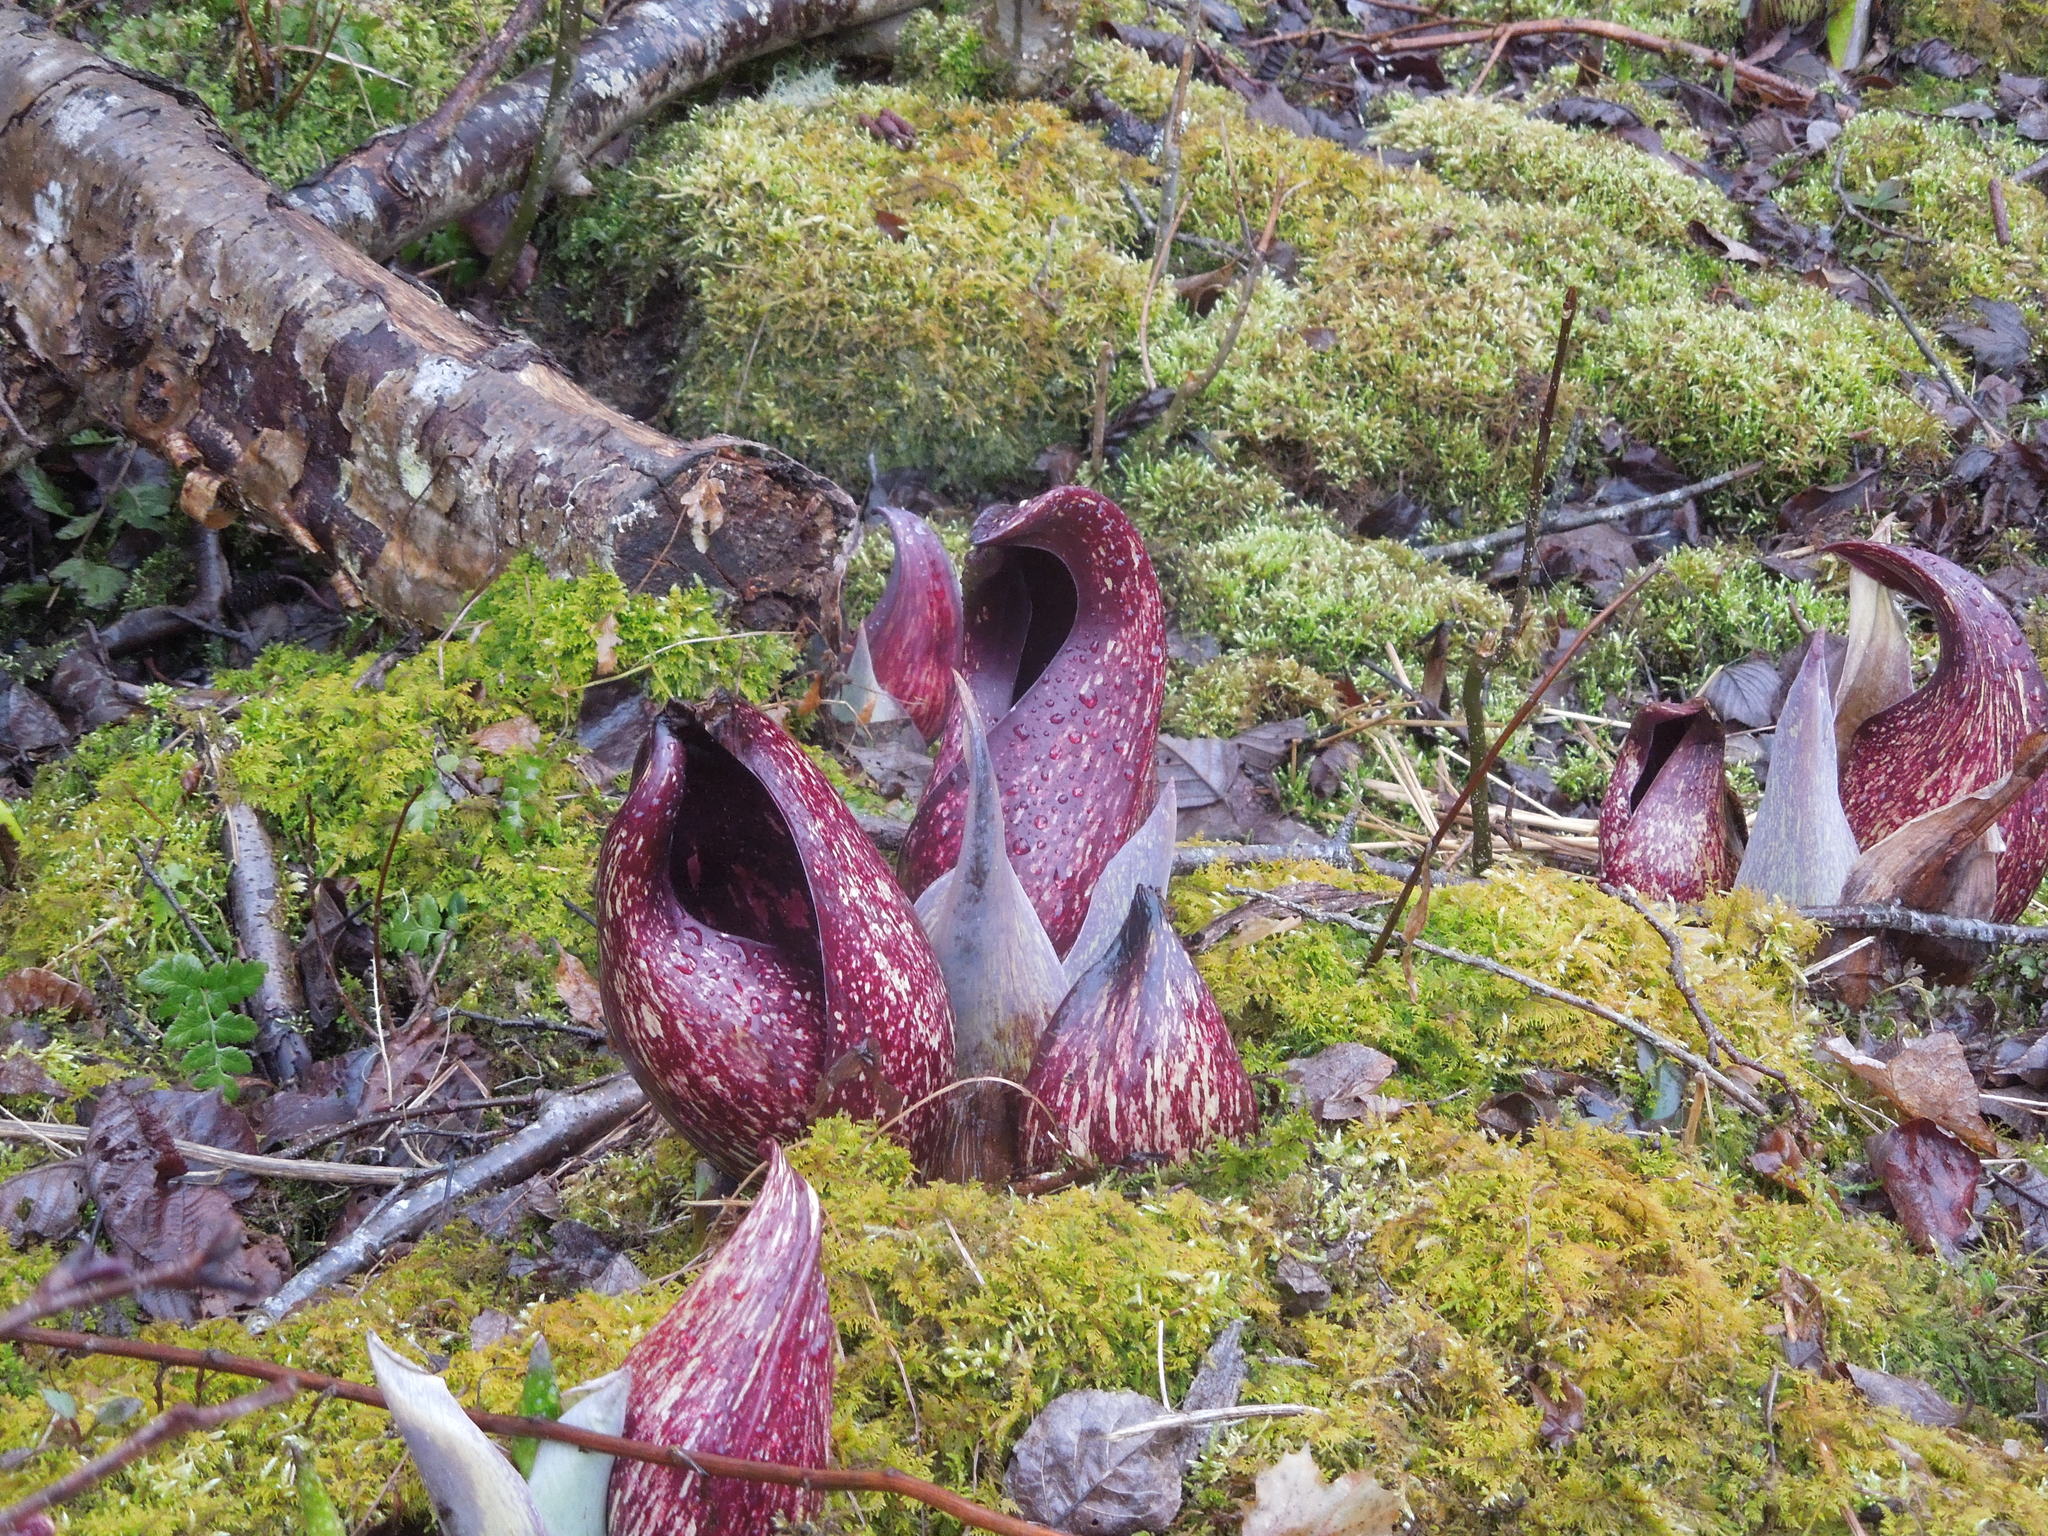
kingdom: Plantae
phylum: Tracheophyta
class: Liliopsida
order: Alismatales
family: Araceae
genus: Symplocarpus
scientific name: Symplocarpus foetidus
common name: Eastern skunk cabbage
